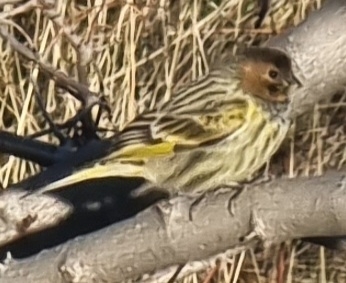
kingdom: Animalia
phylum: Chordata
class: Aves
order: Passeriformes
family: Fringillidae
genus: Serinus
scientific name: Serinus pusillus
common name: Red-fronted serin
